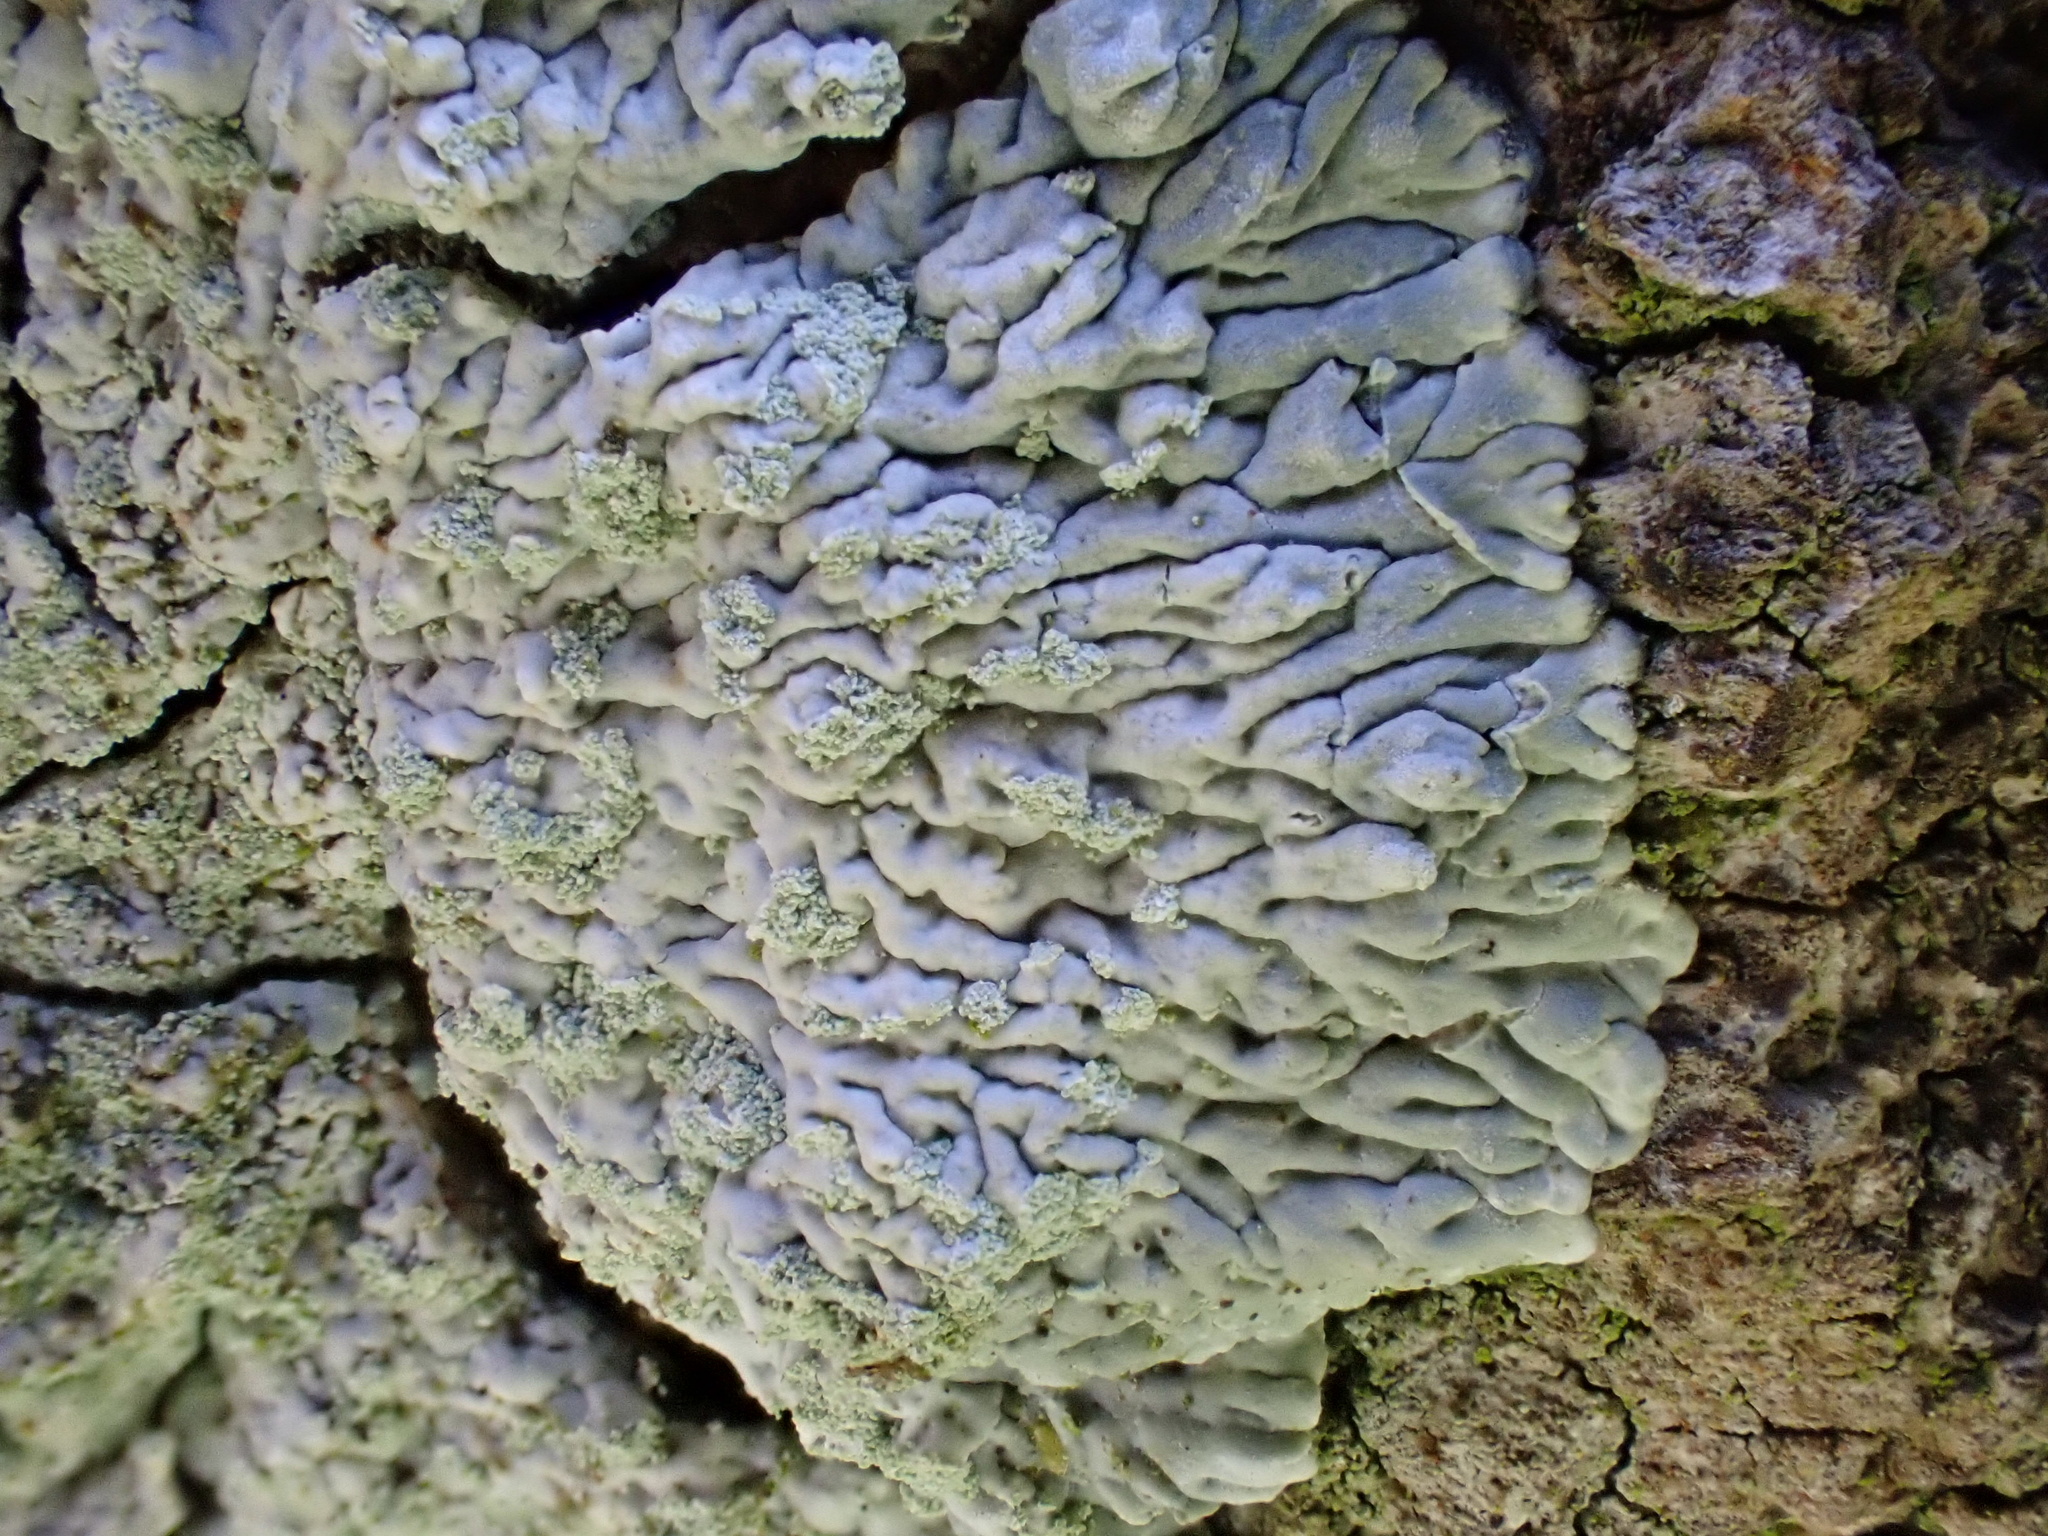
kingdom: Fungi
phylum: Ascomycota
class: Lecanoromycetes
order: Caliciales
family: Caliciaceae
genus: Diploicia
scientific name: Diploicia canescens
